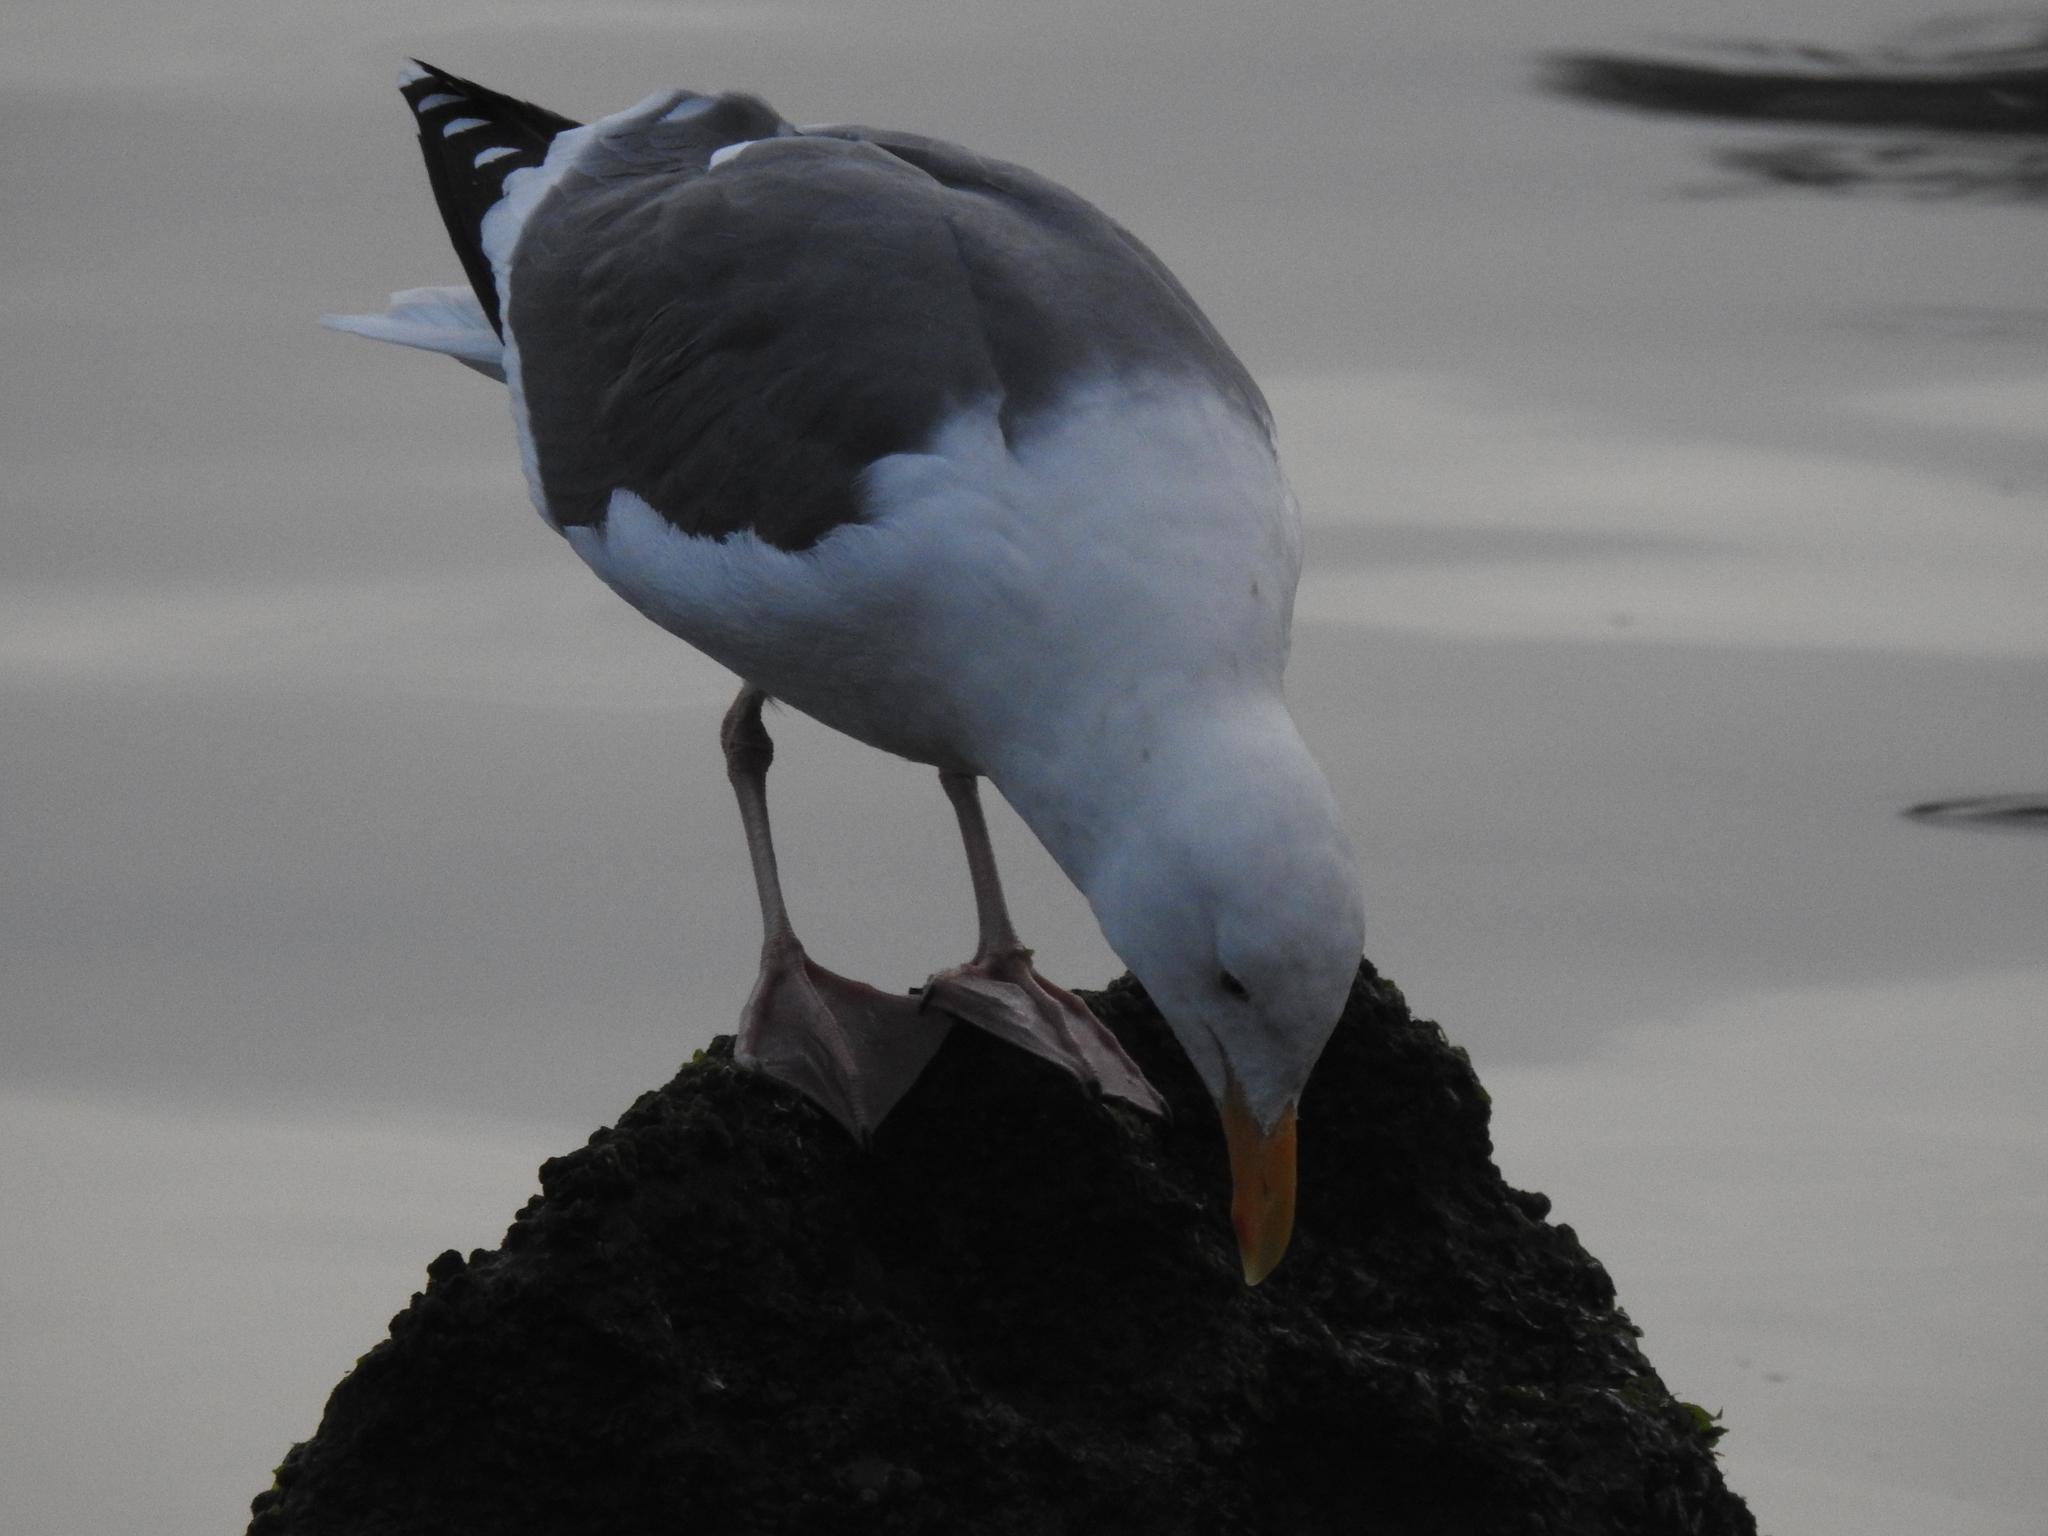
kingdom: Animalia
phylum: Chordata
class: Aves
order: Charadriiformes
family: Laridae
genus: Larus
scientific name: Larus occidentalis
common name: Western gull
